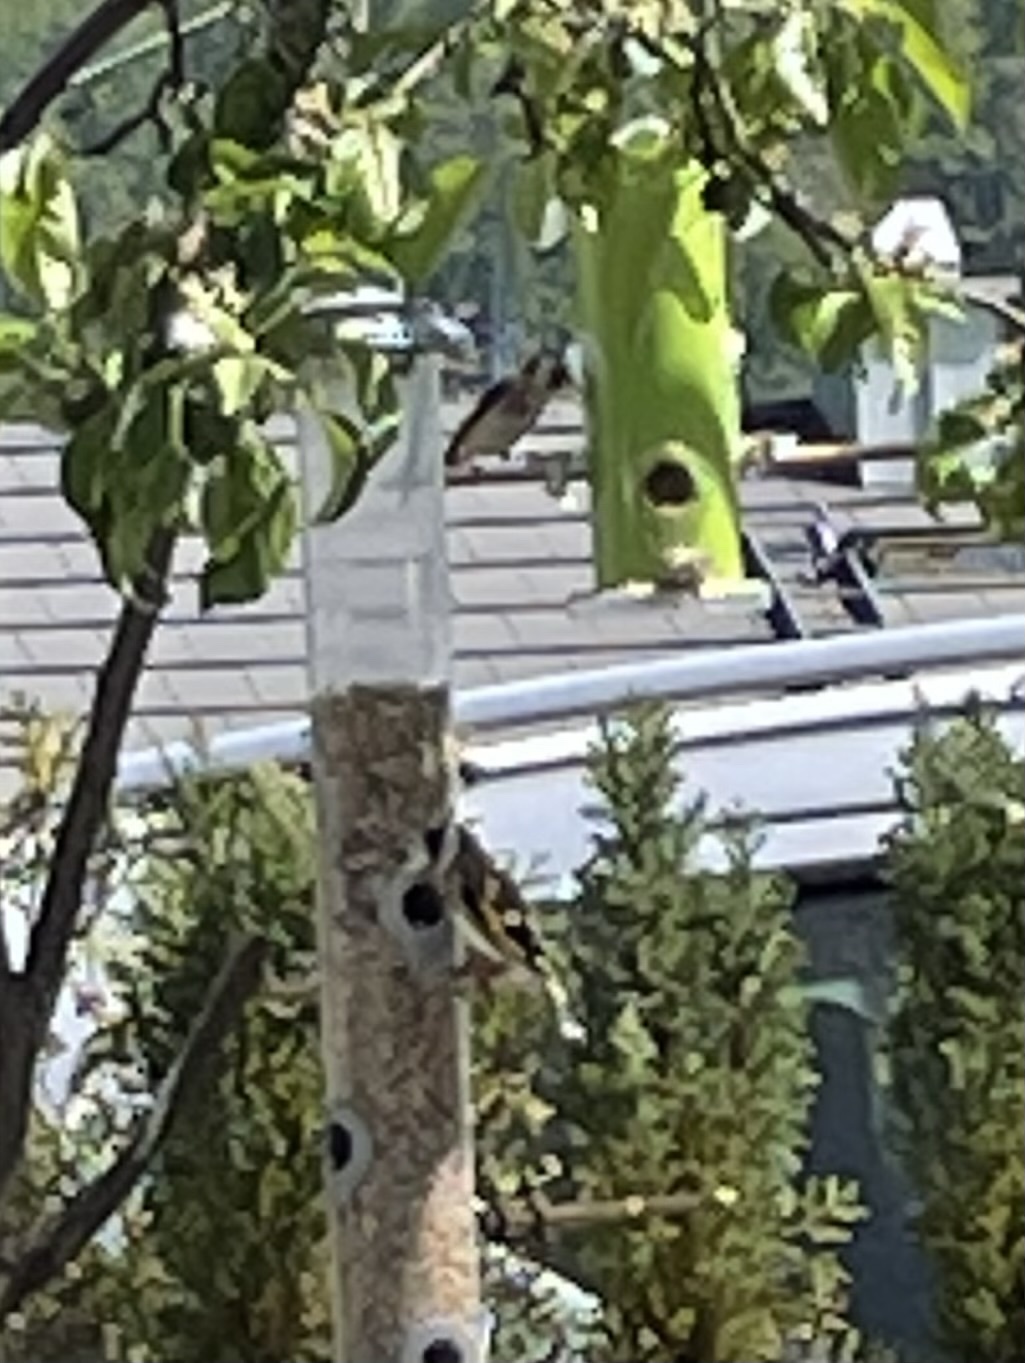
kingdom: Animalia
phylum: Chordata
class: Aves
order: Passeriformes
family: Fringillidae
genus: Carduelis
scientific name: Carduelis carduelis
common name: European goldfinch
